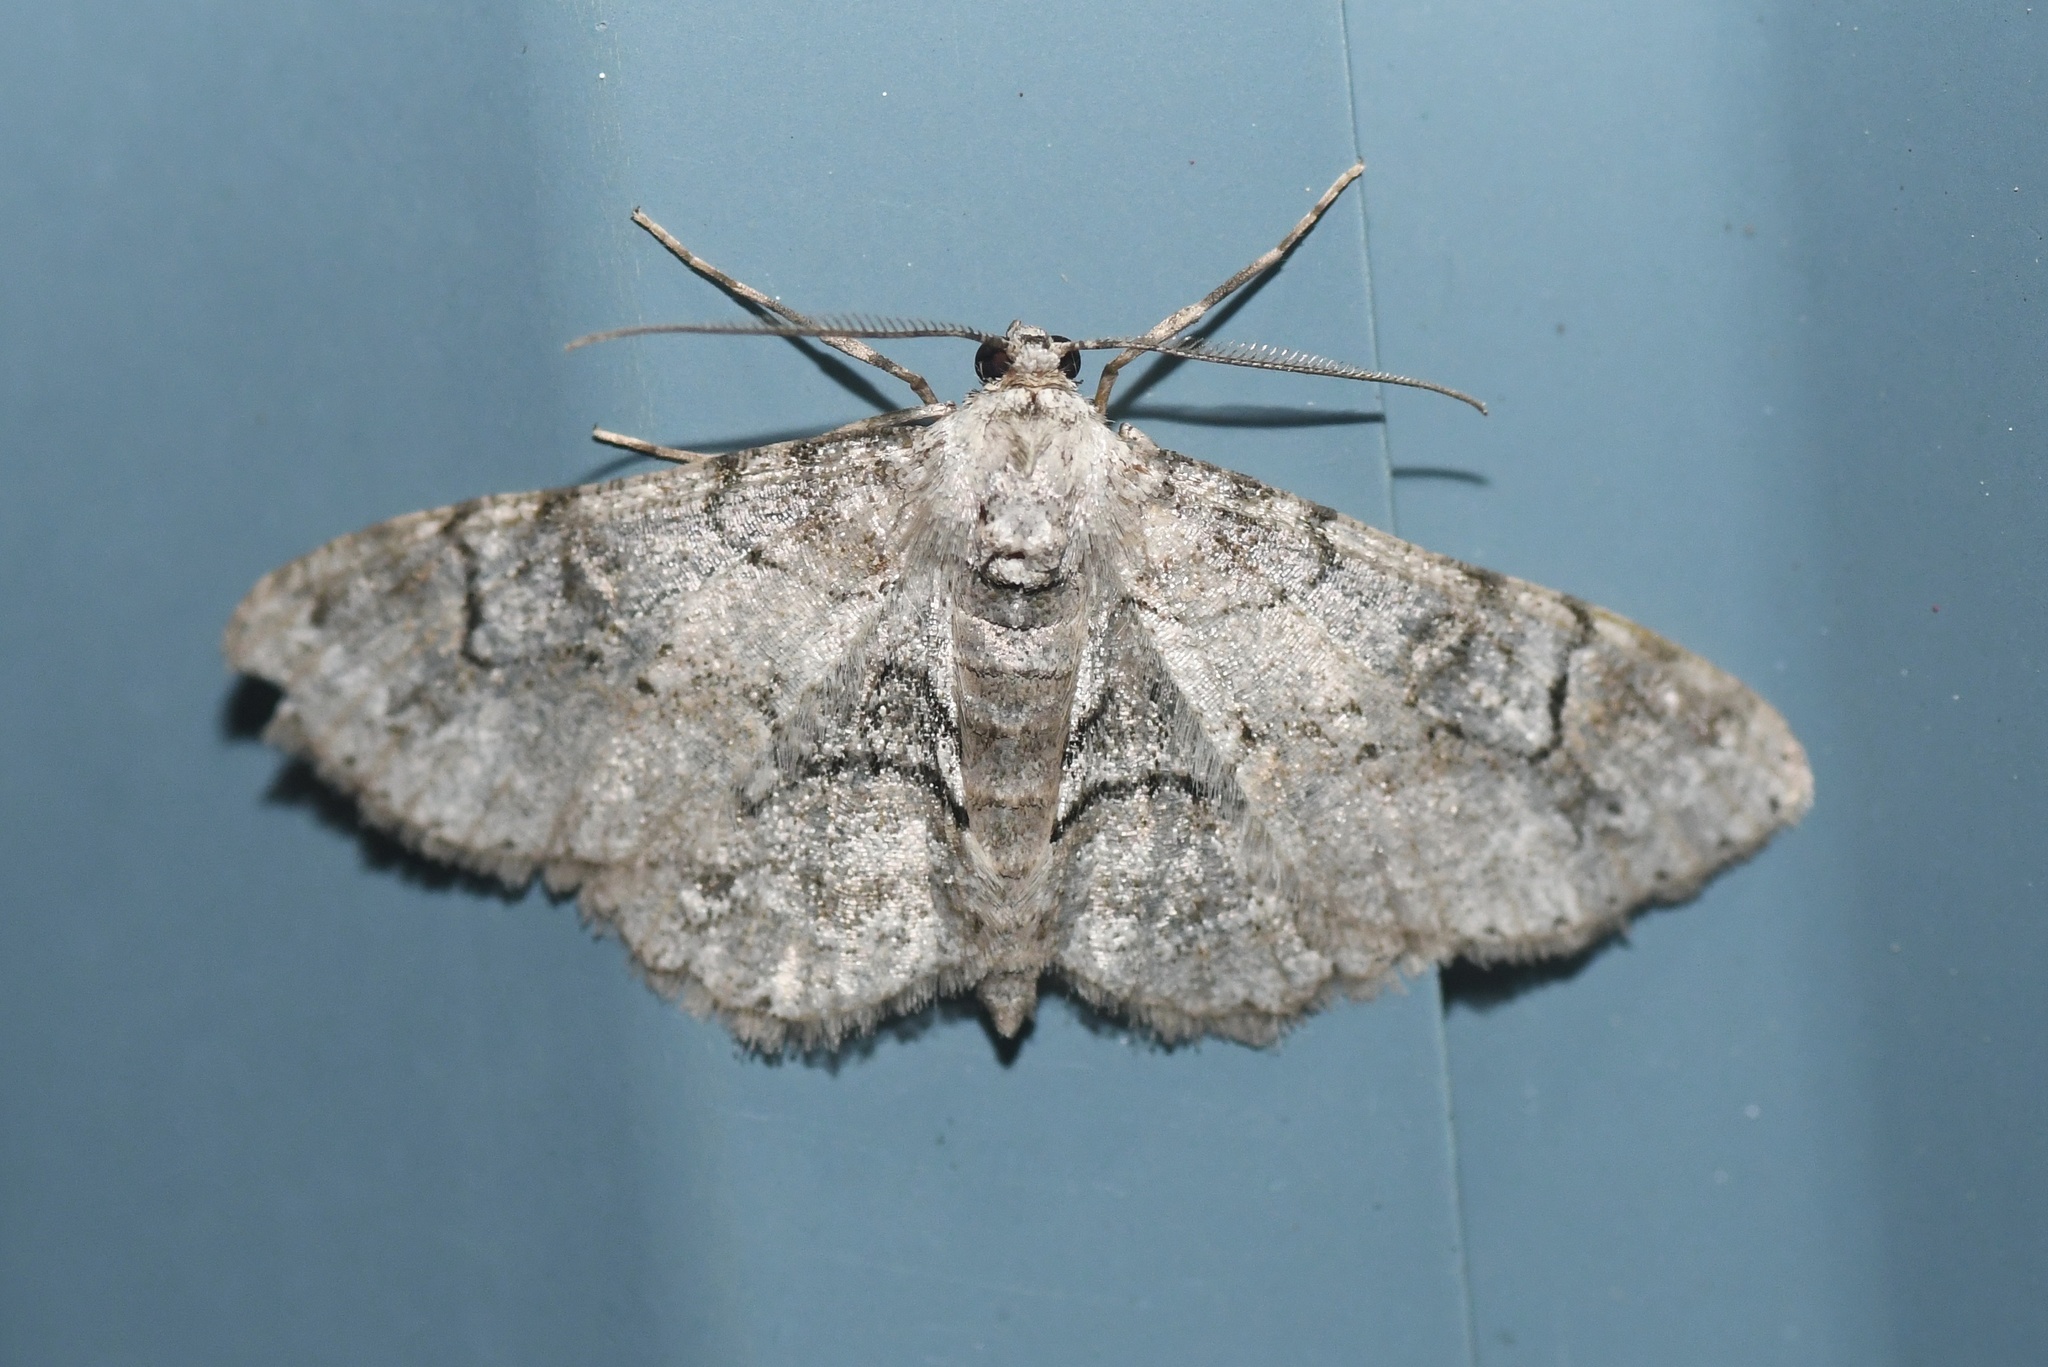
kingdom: Animalia
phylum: Arthropoda
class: Insecta
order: Lepidoptera
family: Geometridae
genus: Iridopsis
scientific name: Iridopsis larvaria
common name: Bent-line gray
